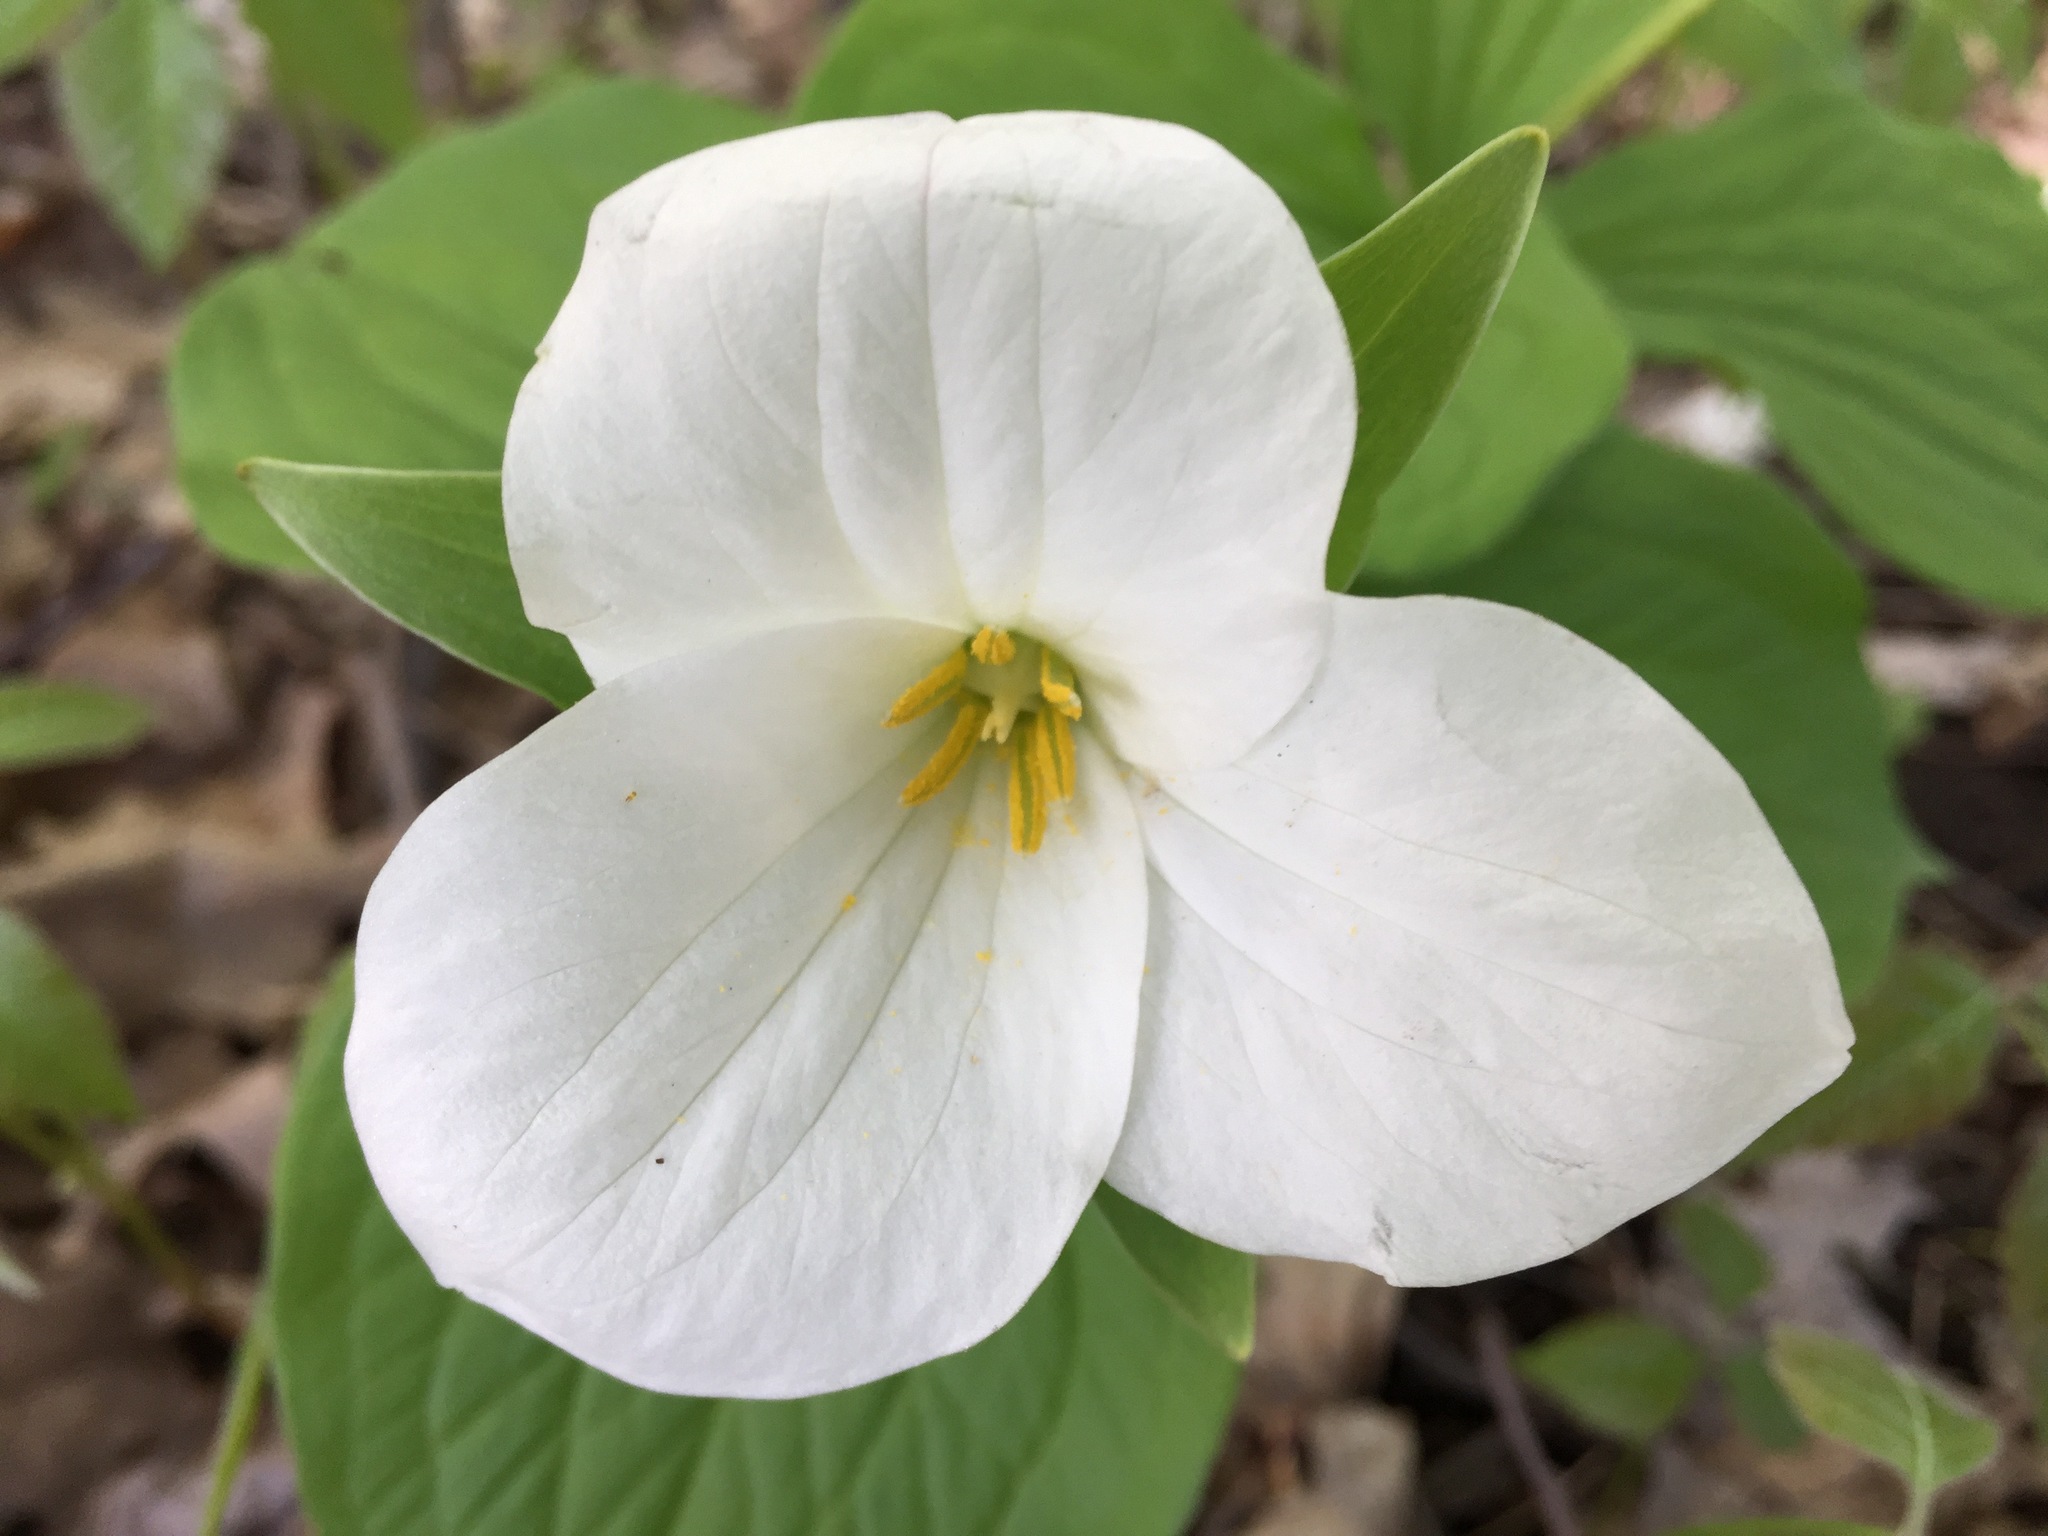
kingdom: Plantae
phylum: Tracheophyta
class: Liliopsida
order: Liliales
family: Melanthiaceae
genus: Trillium
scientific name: Trillium grandiflorum
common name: Great white trillium
